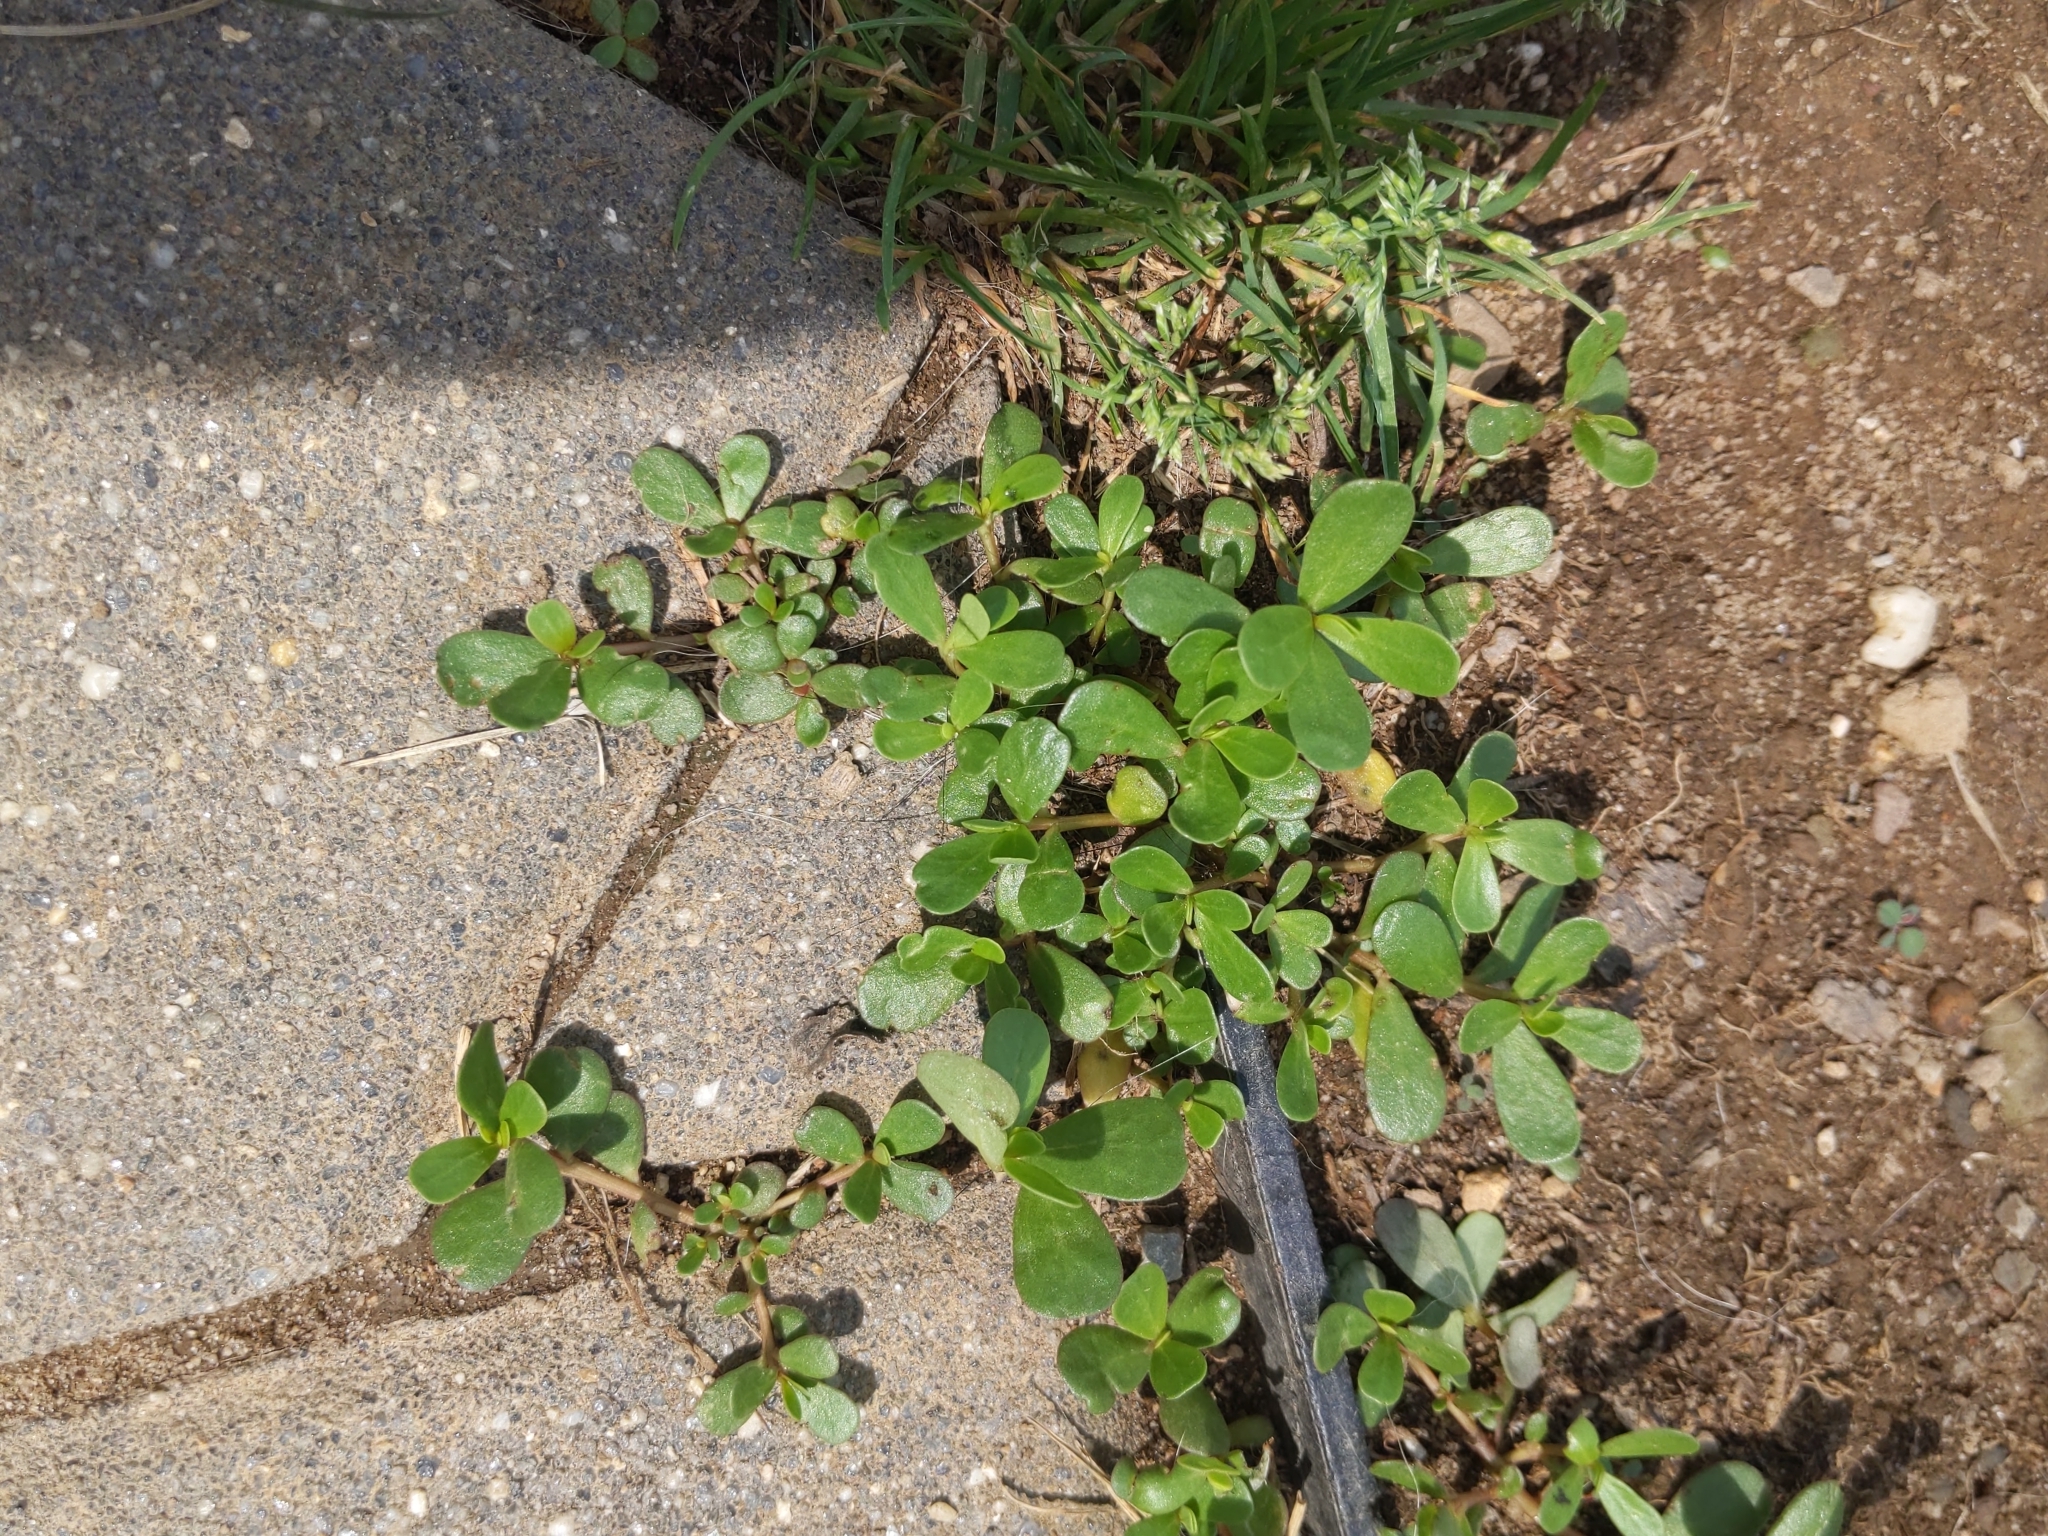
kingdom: Plantae
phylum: Tracheophyta
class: Magnoliopsida
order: Caryophyllales
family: Portulacaceae
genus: Portulaca
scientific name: Portulaca oleracea
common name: Common purslane
